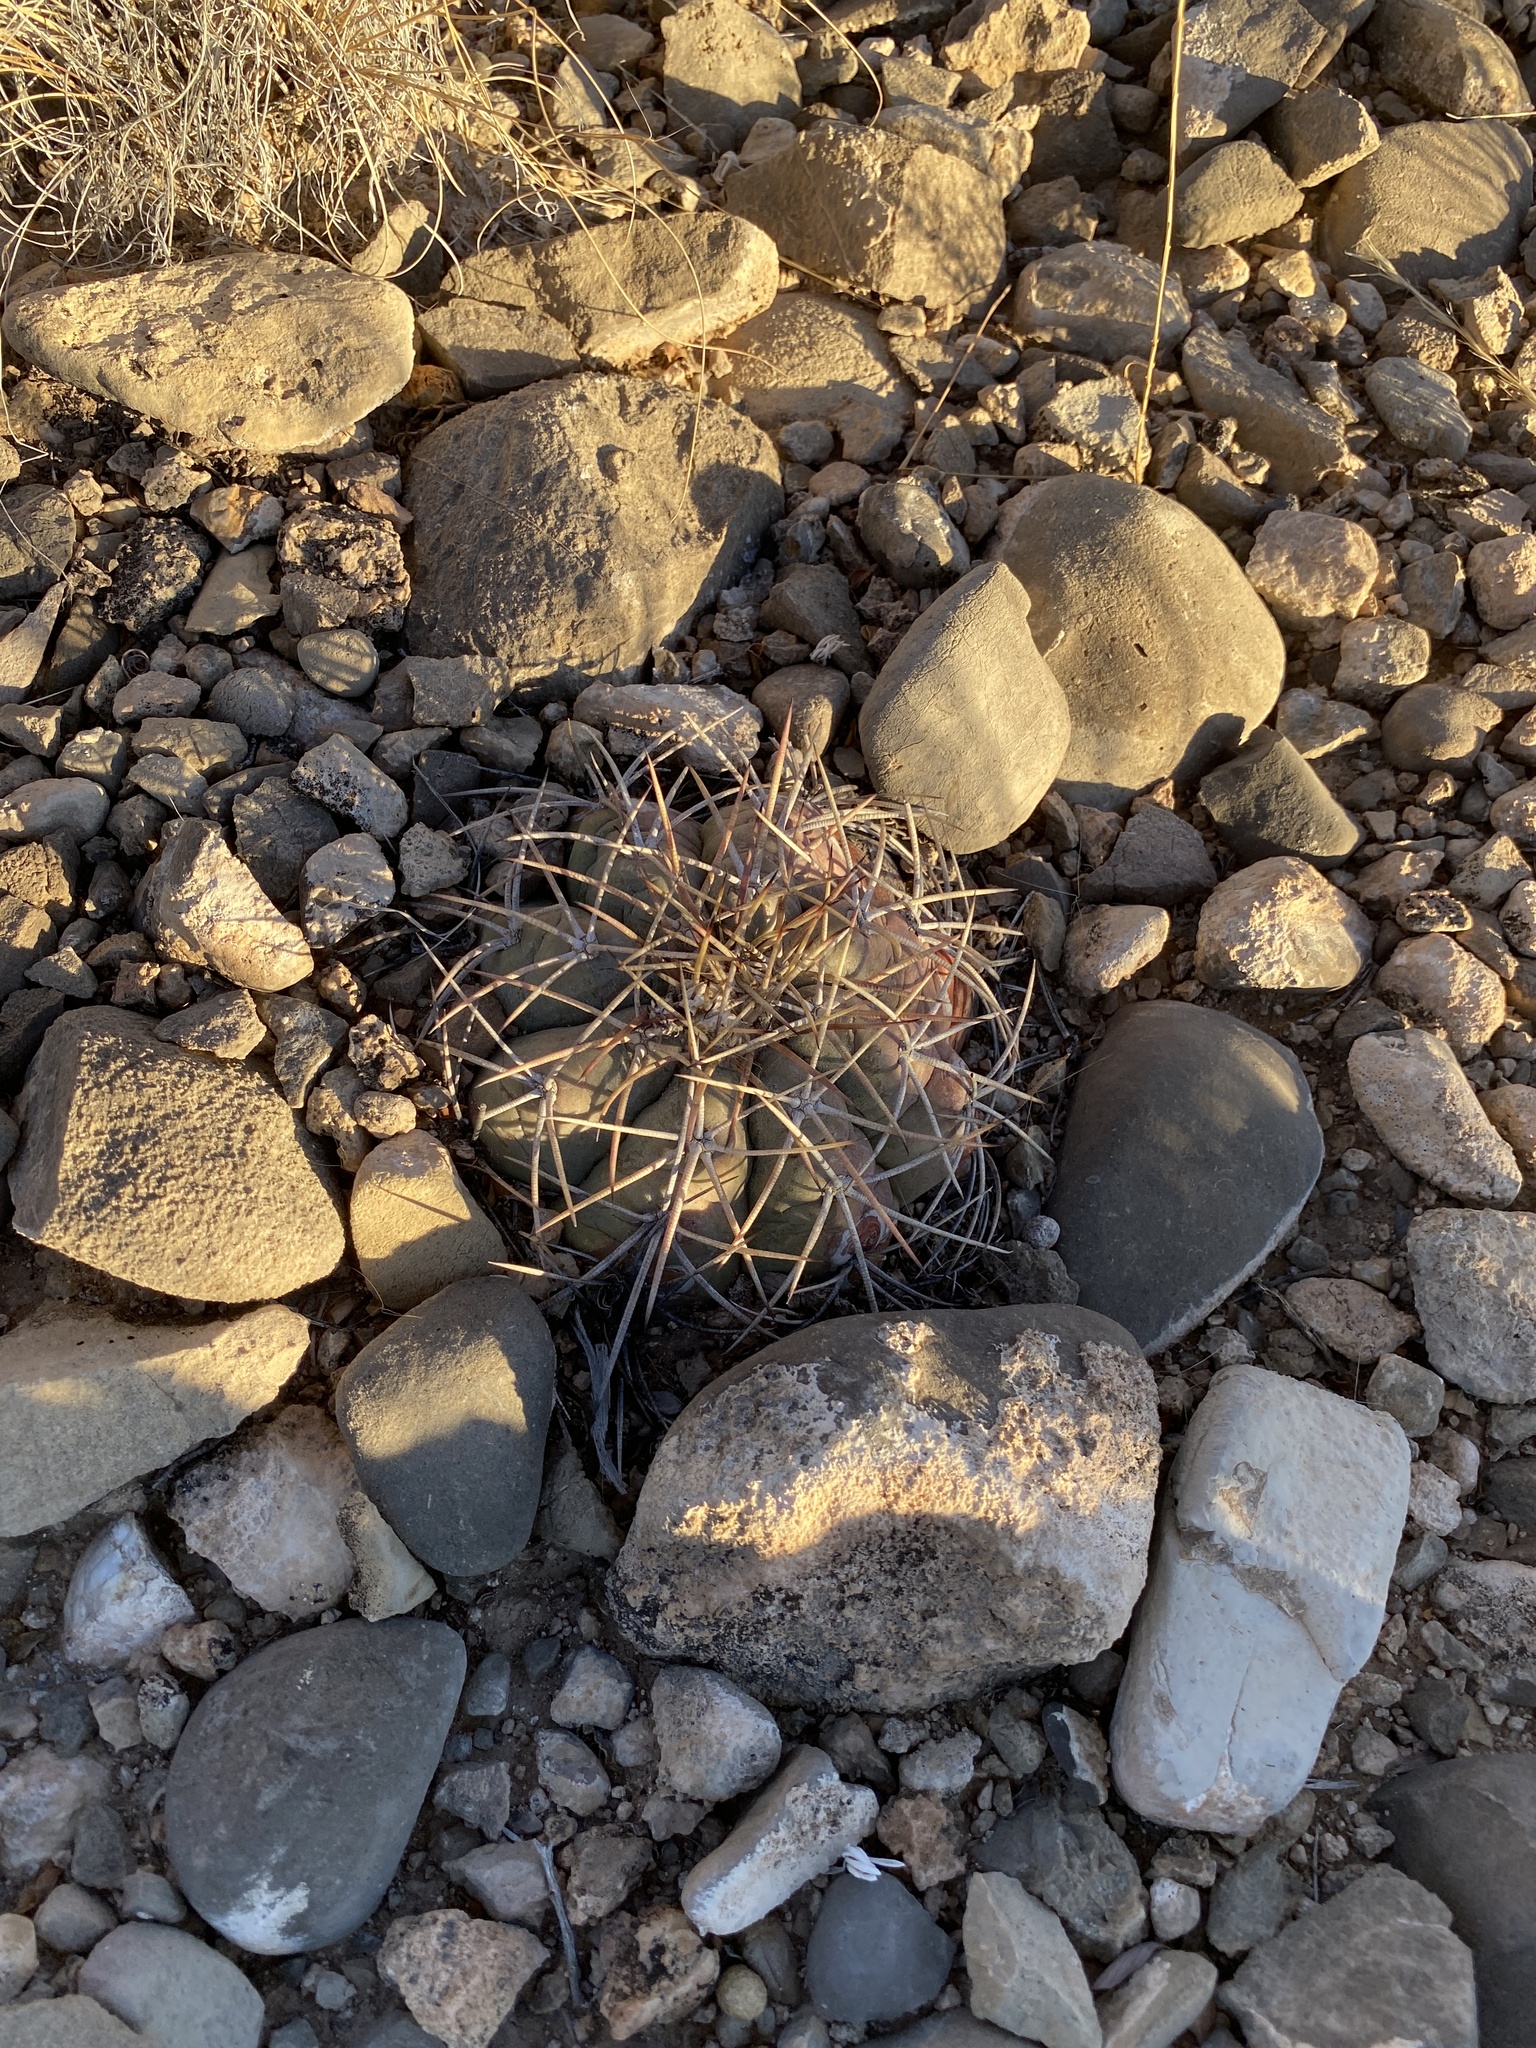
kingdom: Plantae
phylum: Tracheophyta
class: Magnoliopsida
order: Caryophyllales
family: Cactaceae
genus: Echinocactus
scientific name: Echinocactus horizonthalonius
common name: Devilshead
